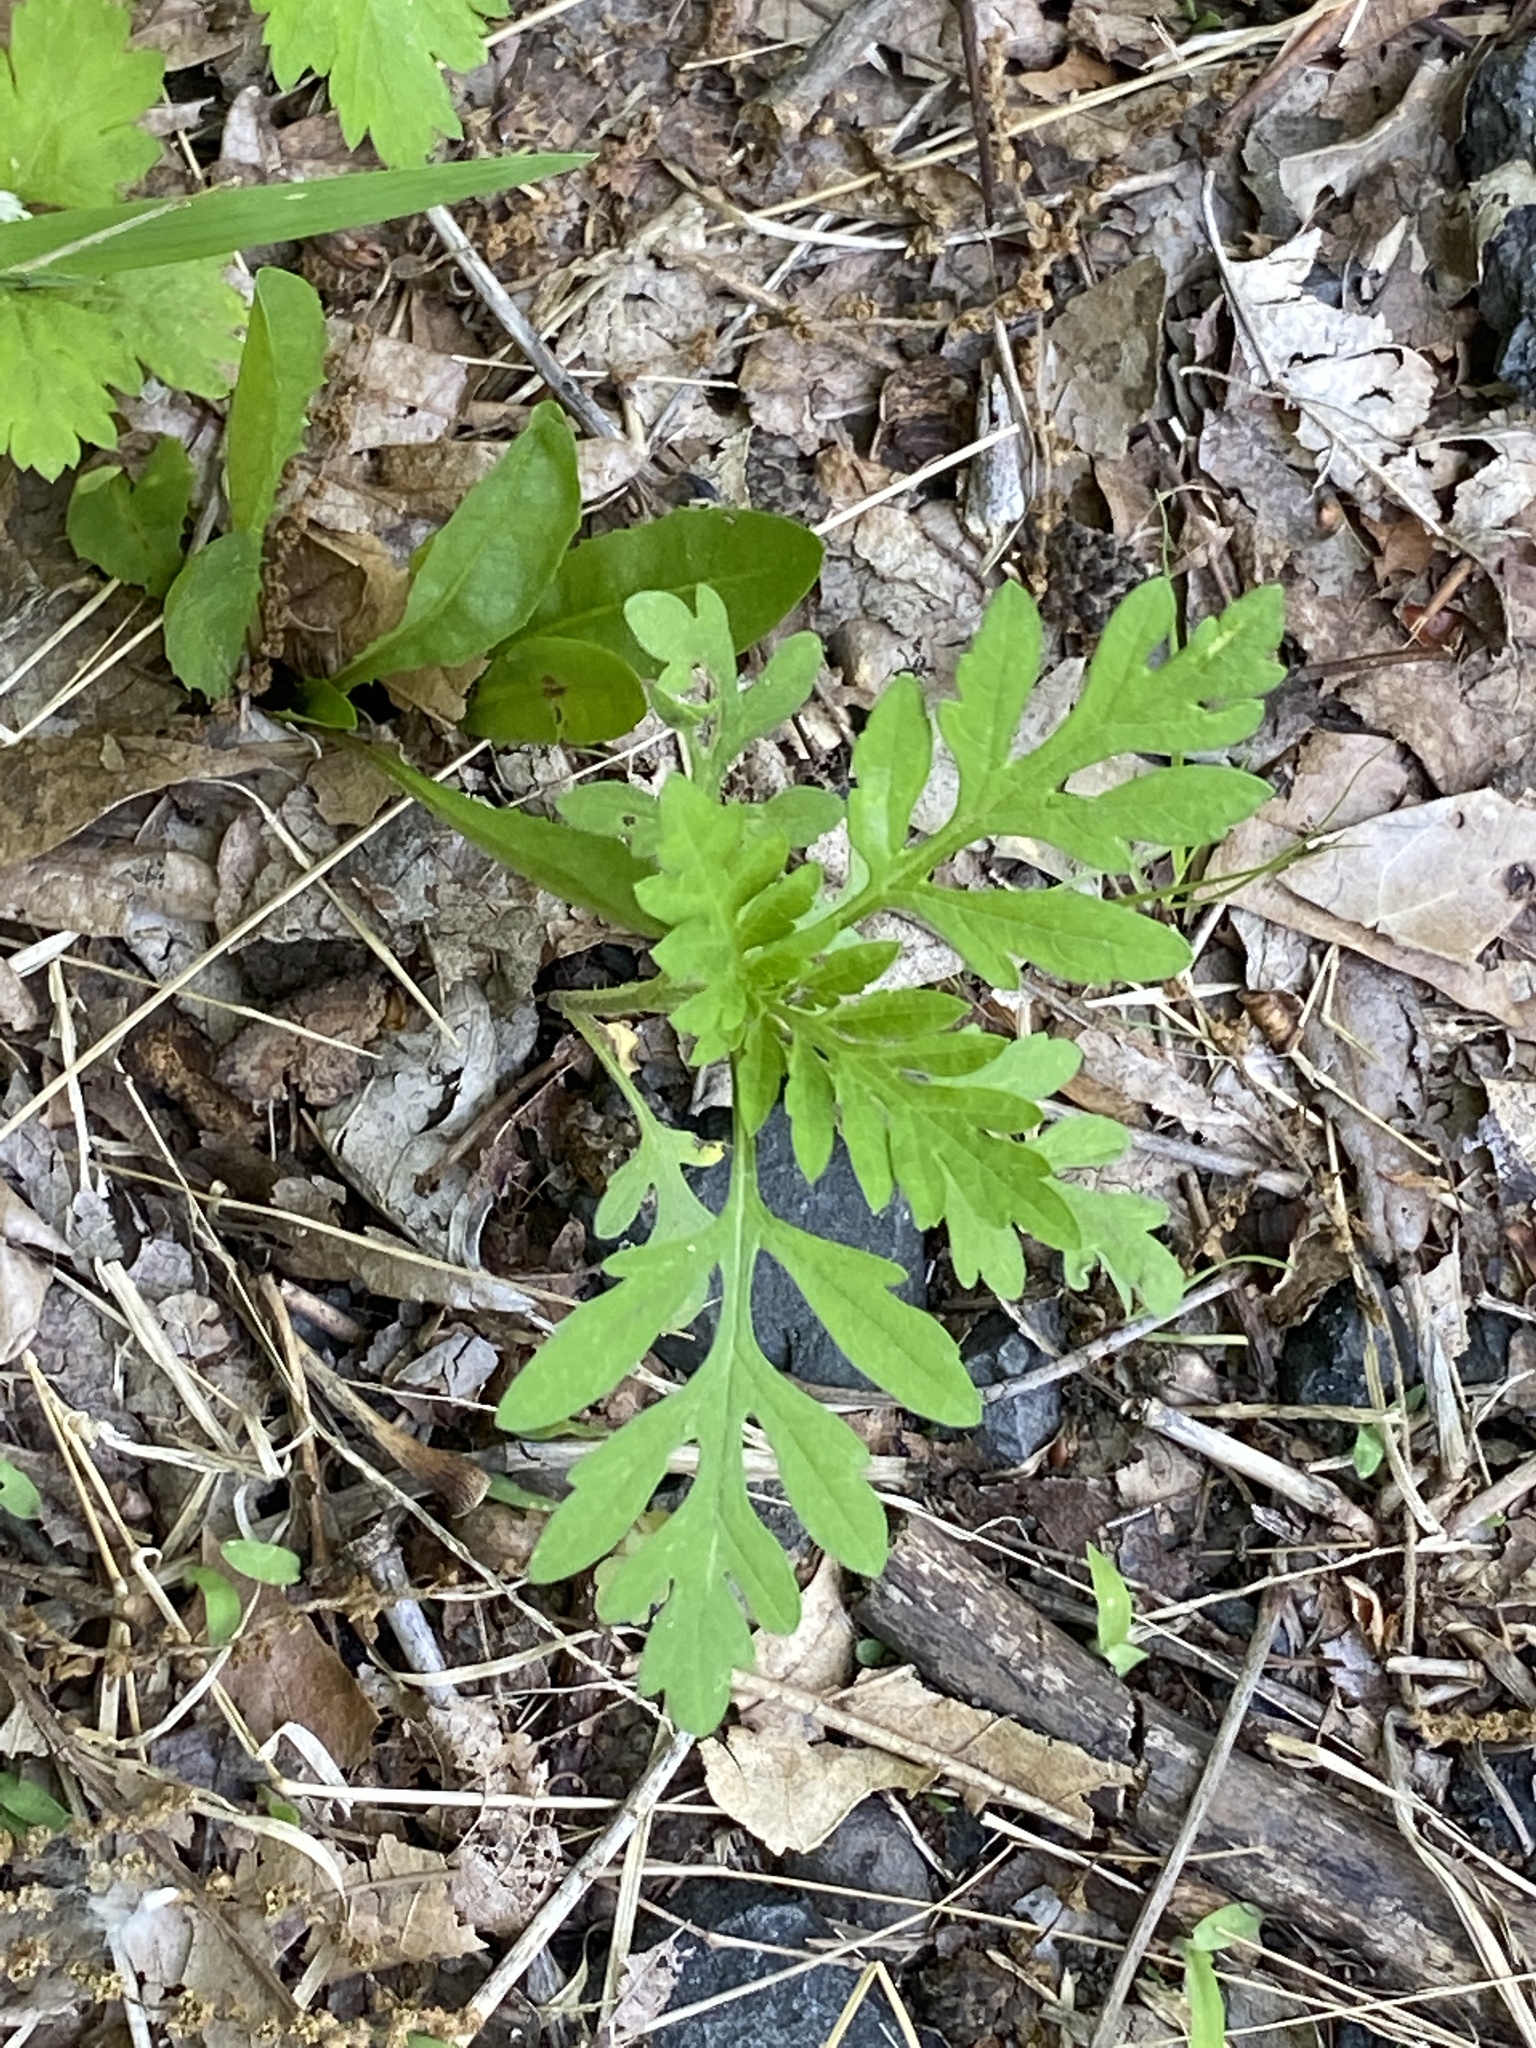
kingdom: Plantae
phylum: Tracheophyta
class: Magnoliopsida
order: Asterales
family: Asteraceae
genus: Ambrosia
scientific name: Ambrosia artemisiifolia
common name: Annual ragweed
